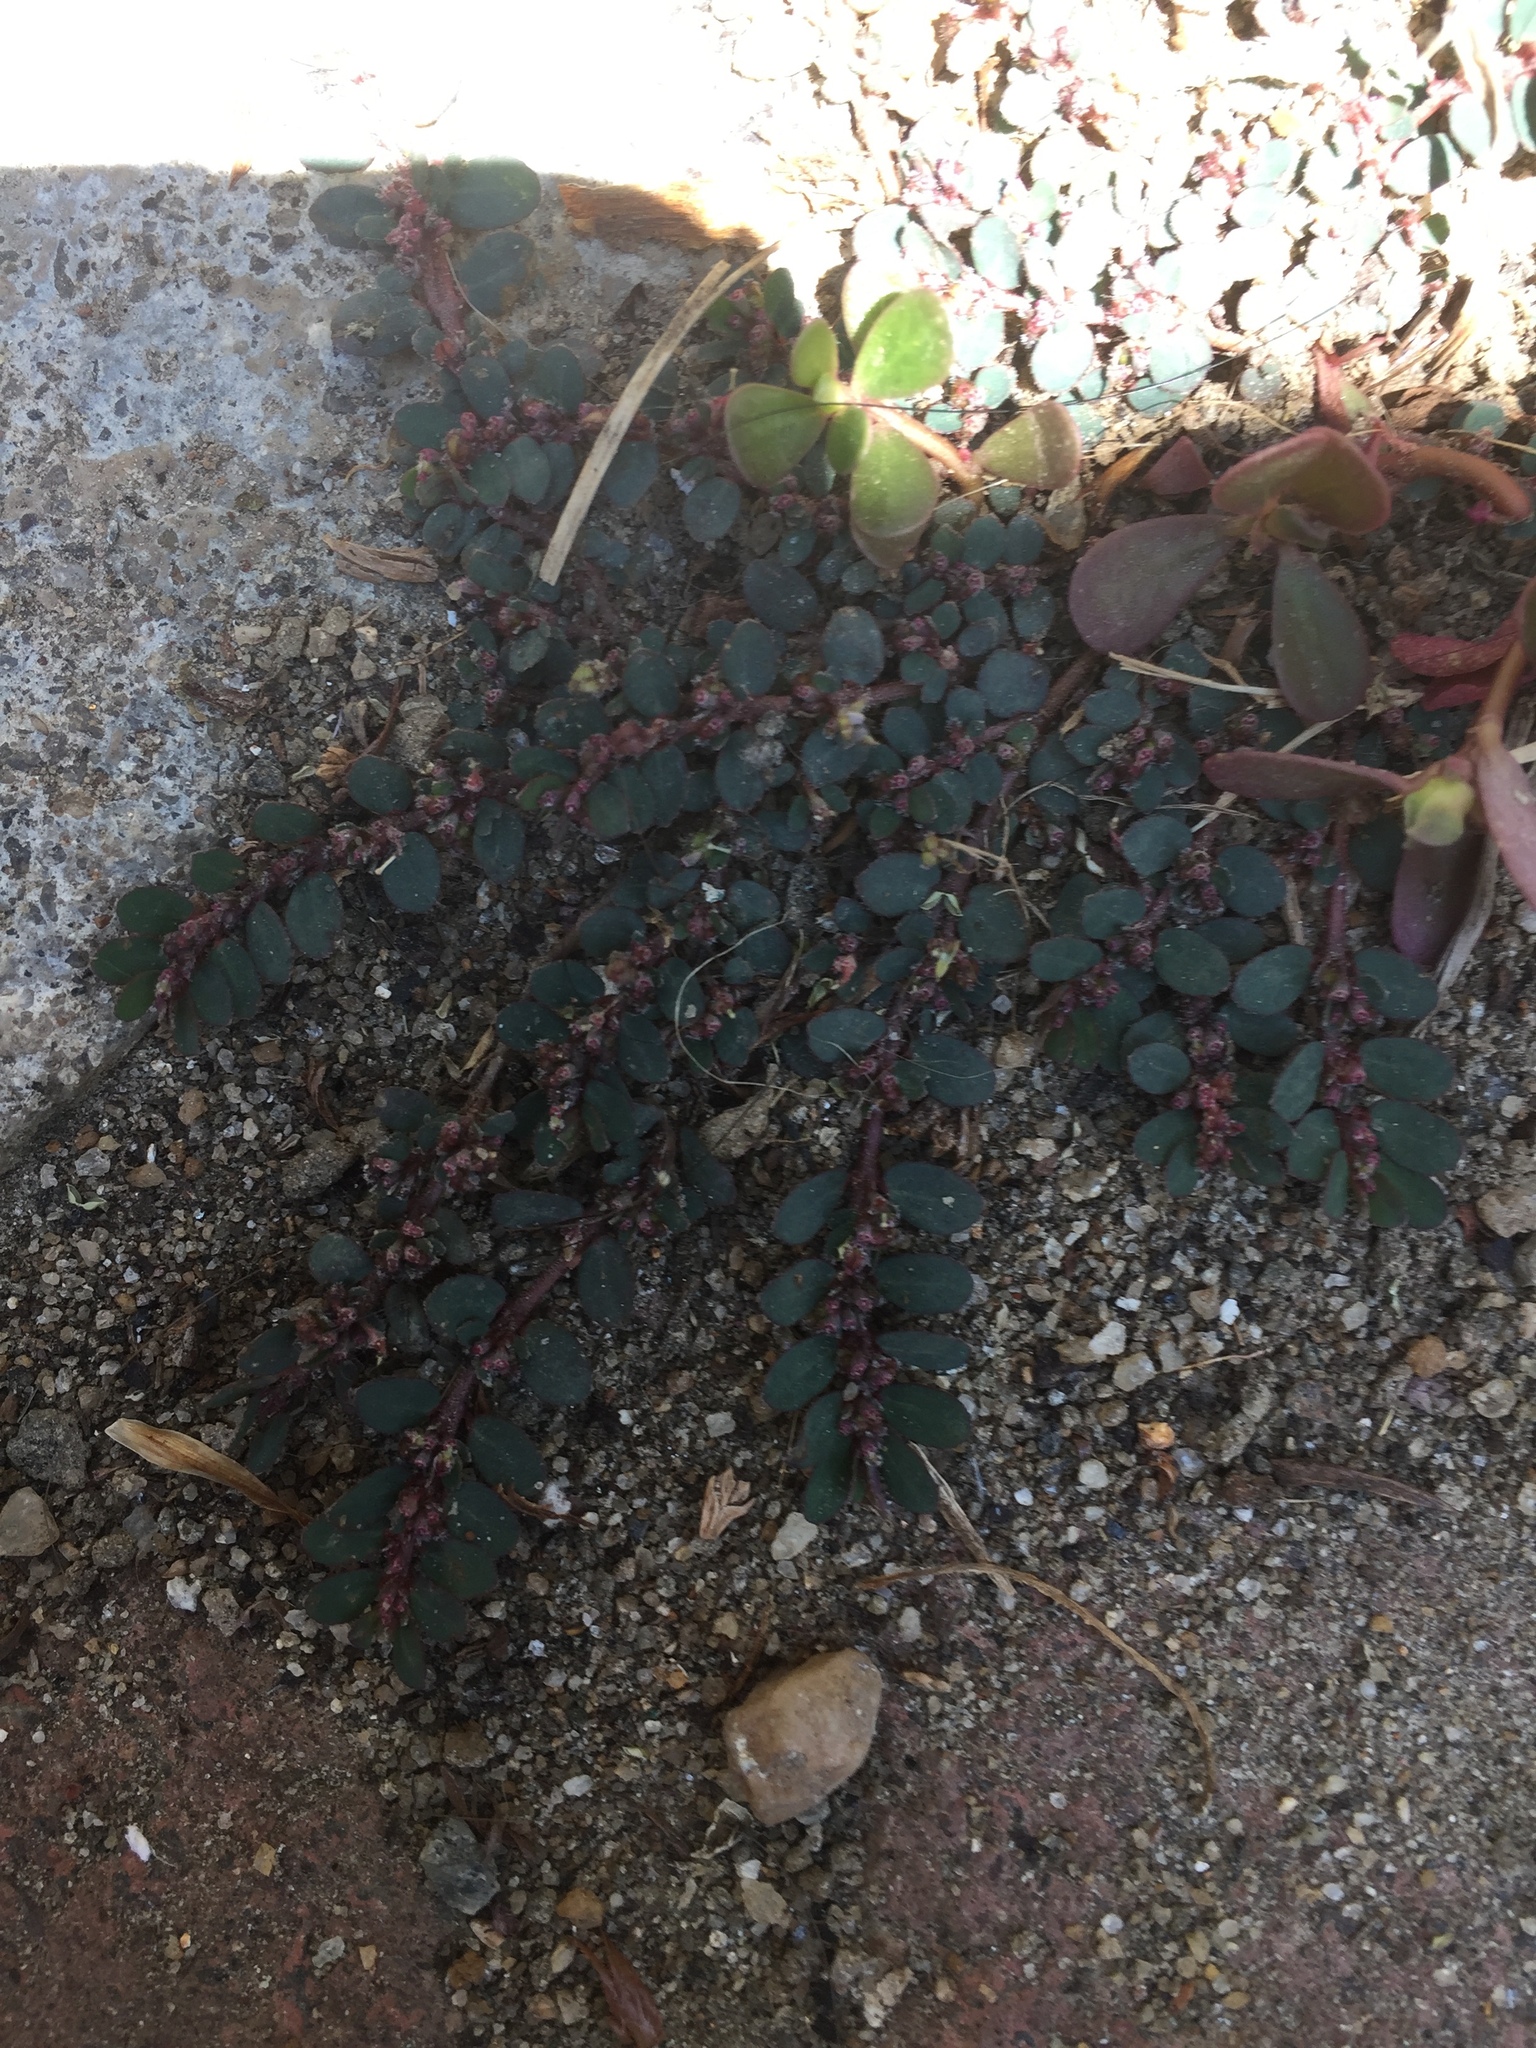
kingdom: Plantae
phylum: Tracheophyta
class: Magnoliopsida
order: Malpighiales
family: Euphorbiaceae
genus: Euphorbia
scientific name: Euphorbia prostrata
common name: Prostrate sandmat
